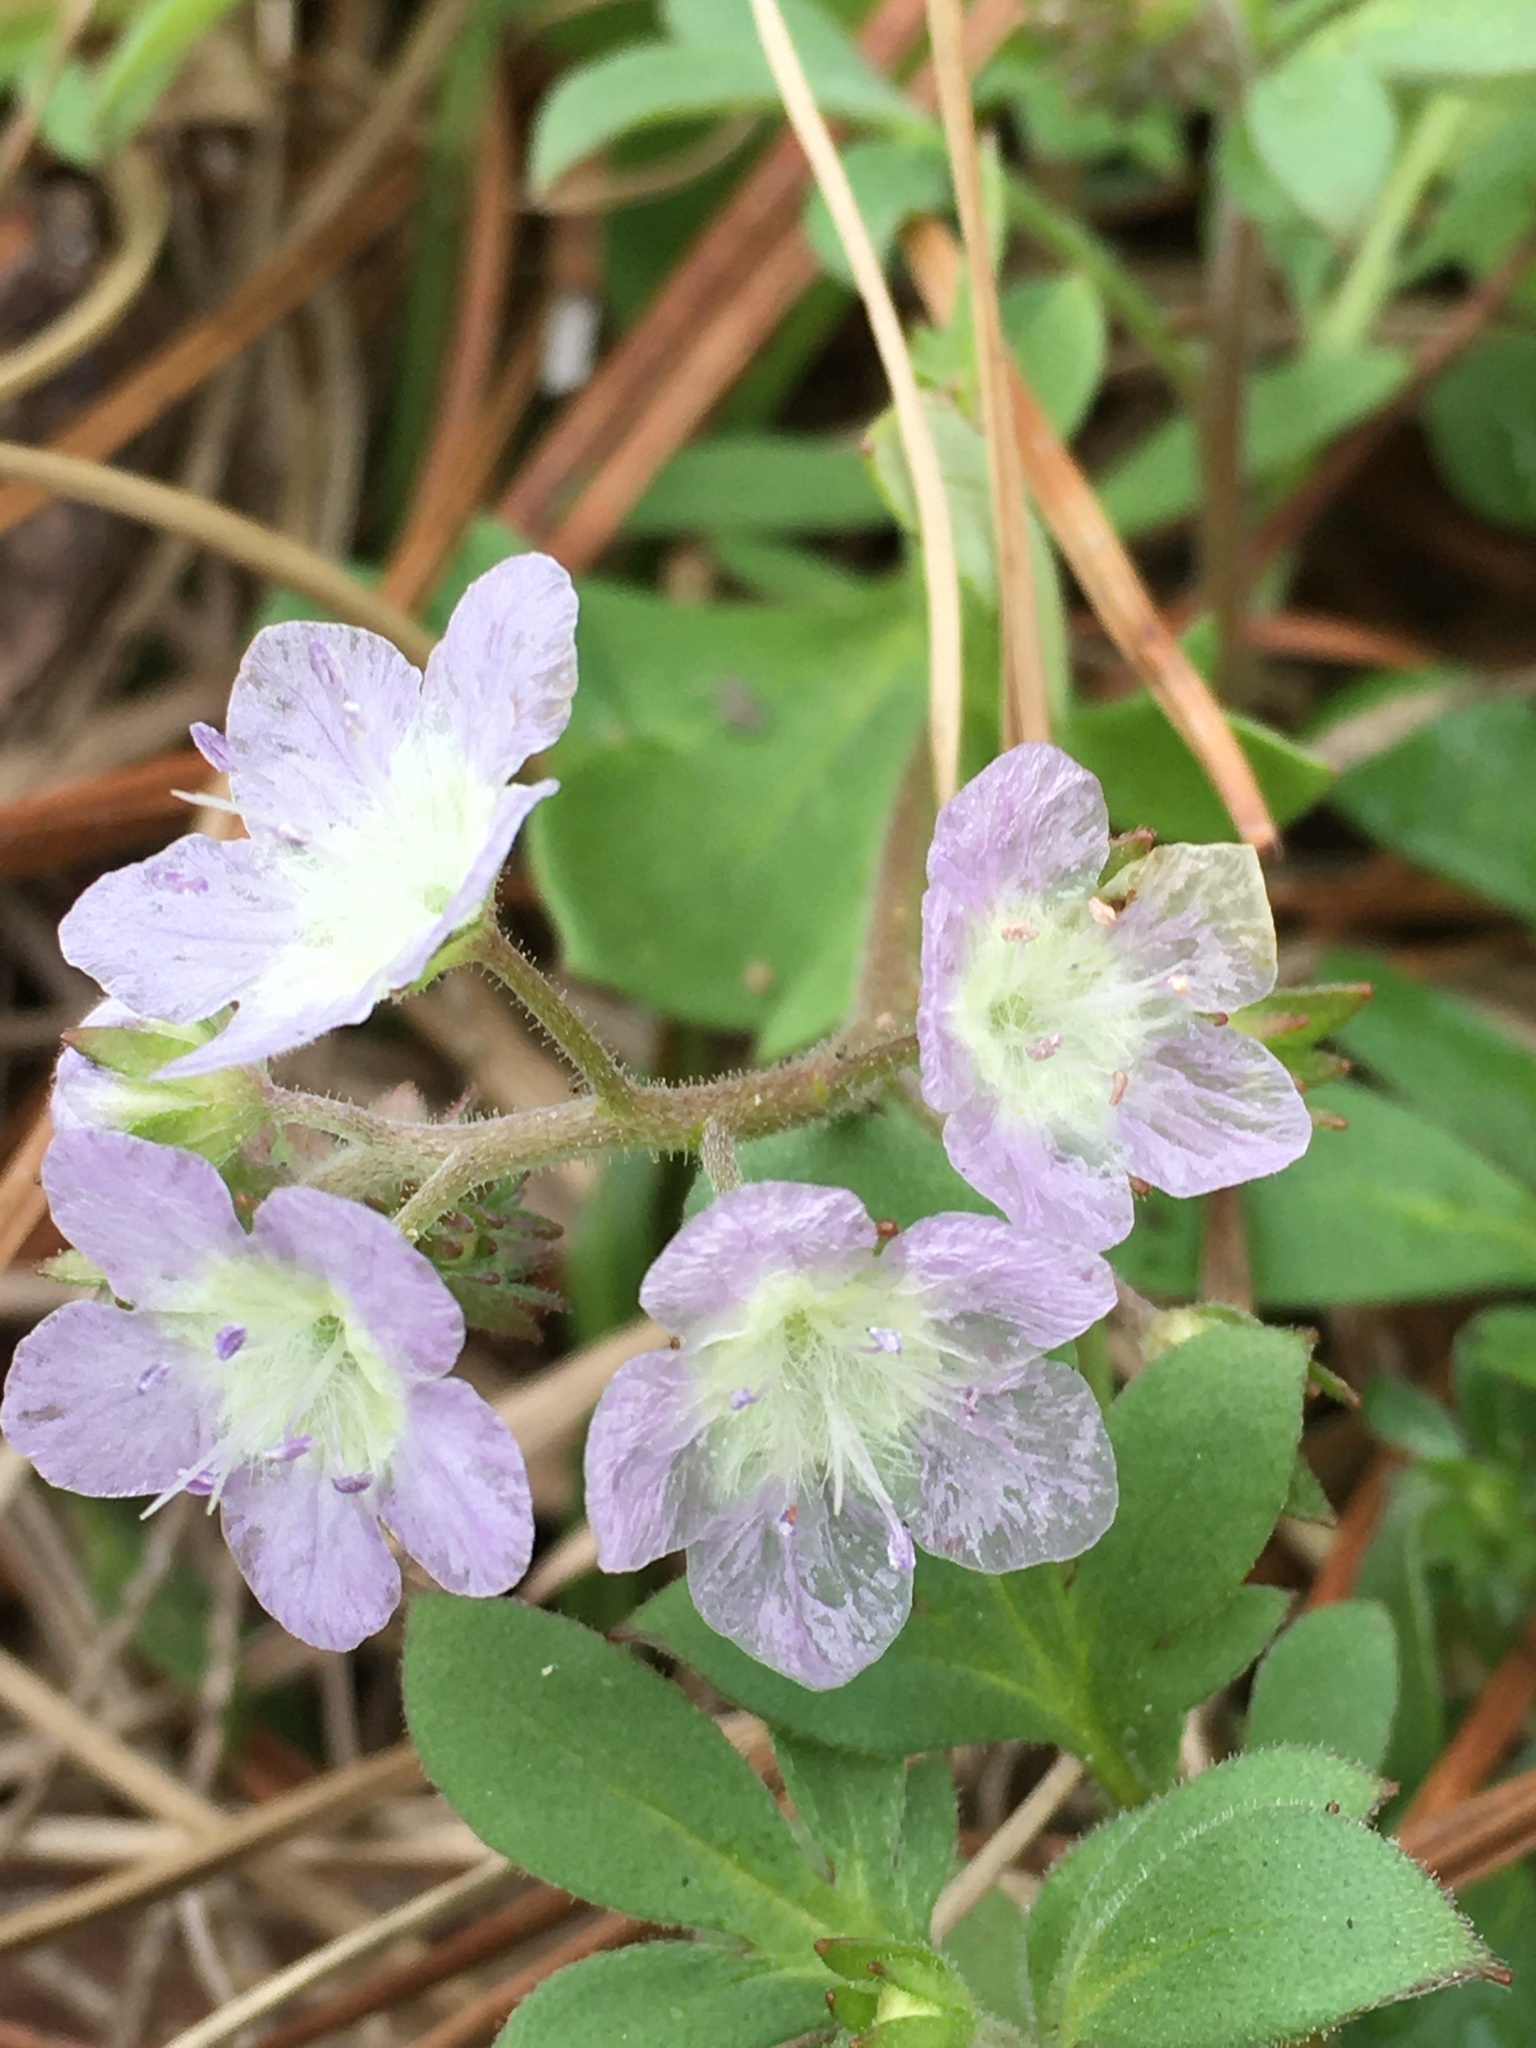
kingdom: Plantae
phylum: Tracheophyta
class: Magnoliopsida
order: Boraginales
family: Hydrophyllaceae
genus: Phacelia
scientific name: Phacelia dubia
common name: Appalachian phacelia
